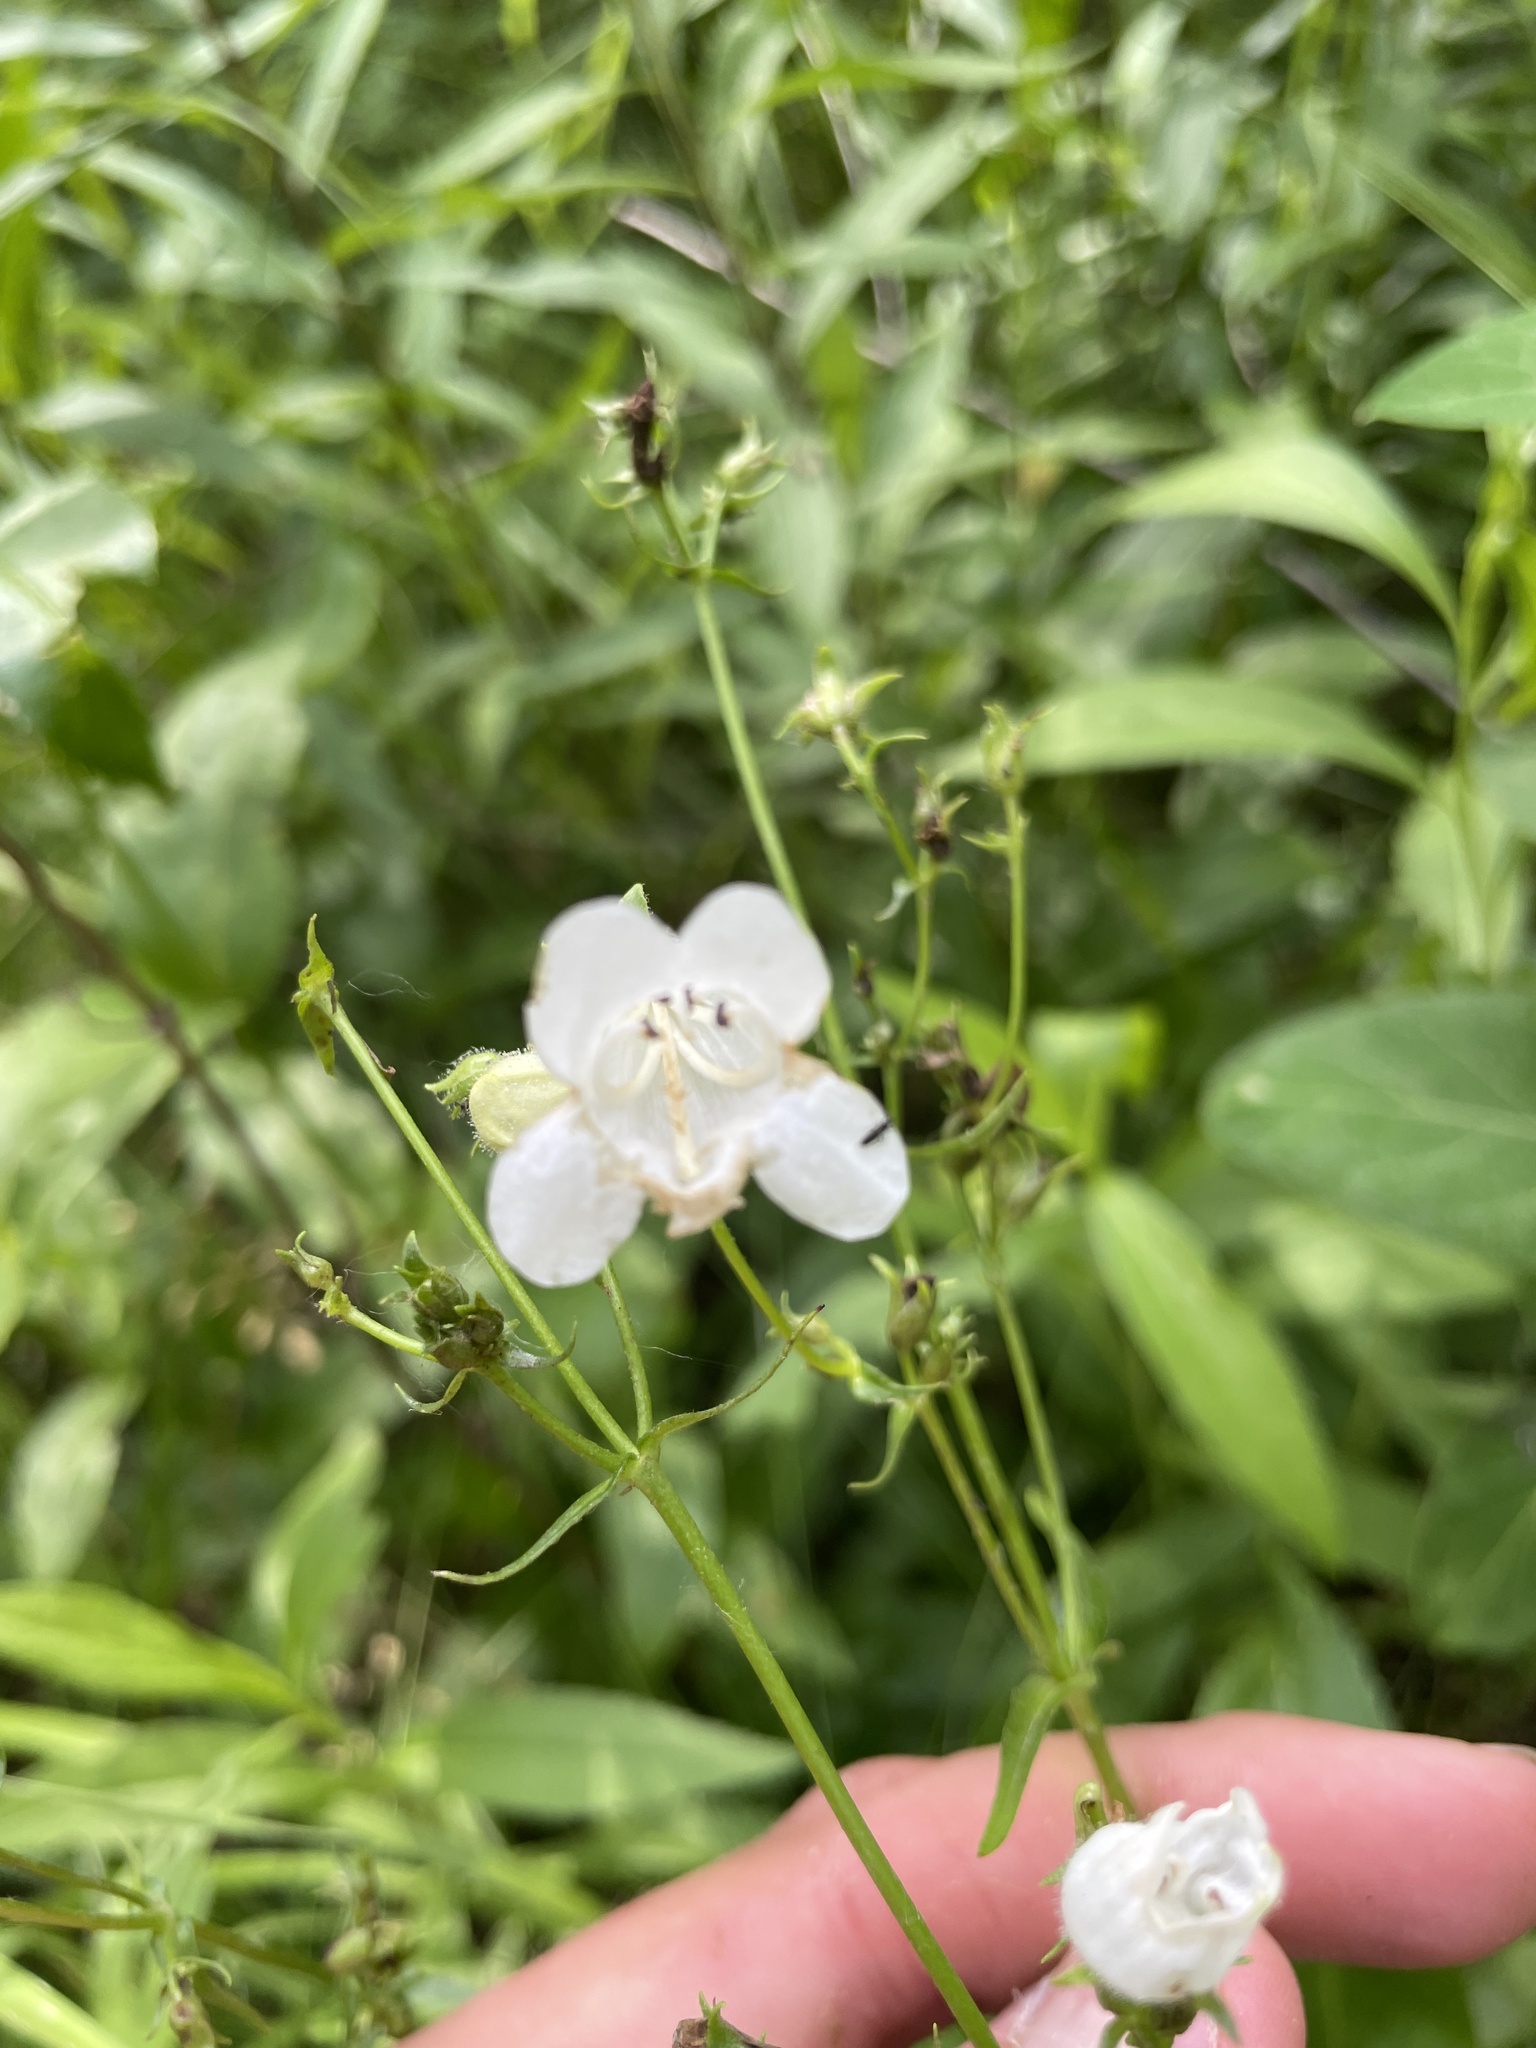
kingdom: Plantae
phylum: Tracheophyta
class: Magnoliopsida
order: Lamiales
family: Plantaginaceae
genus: Penstemon
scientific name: Penstemon digitalis
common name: Foxglove beardtongue
